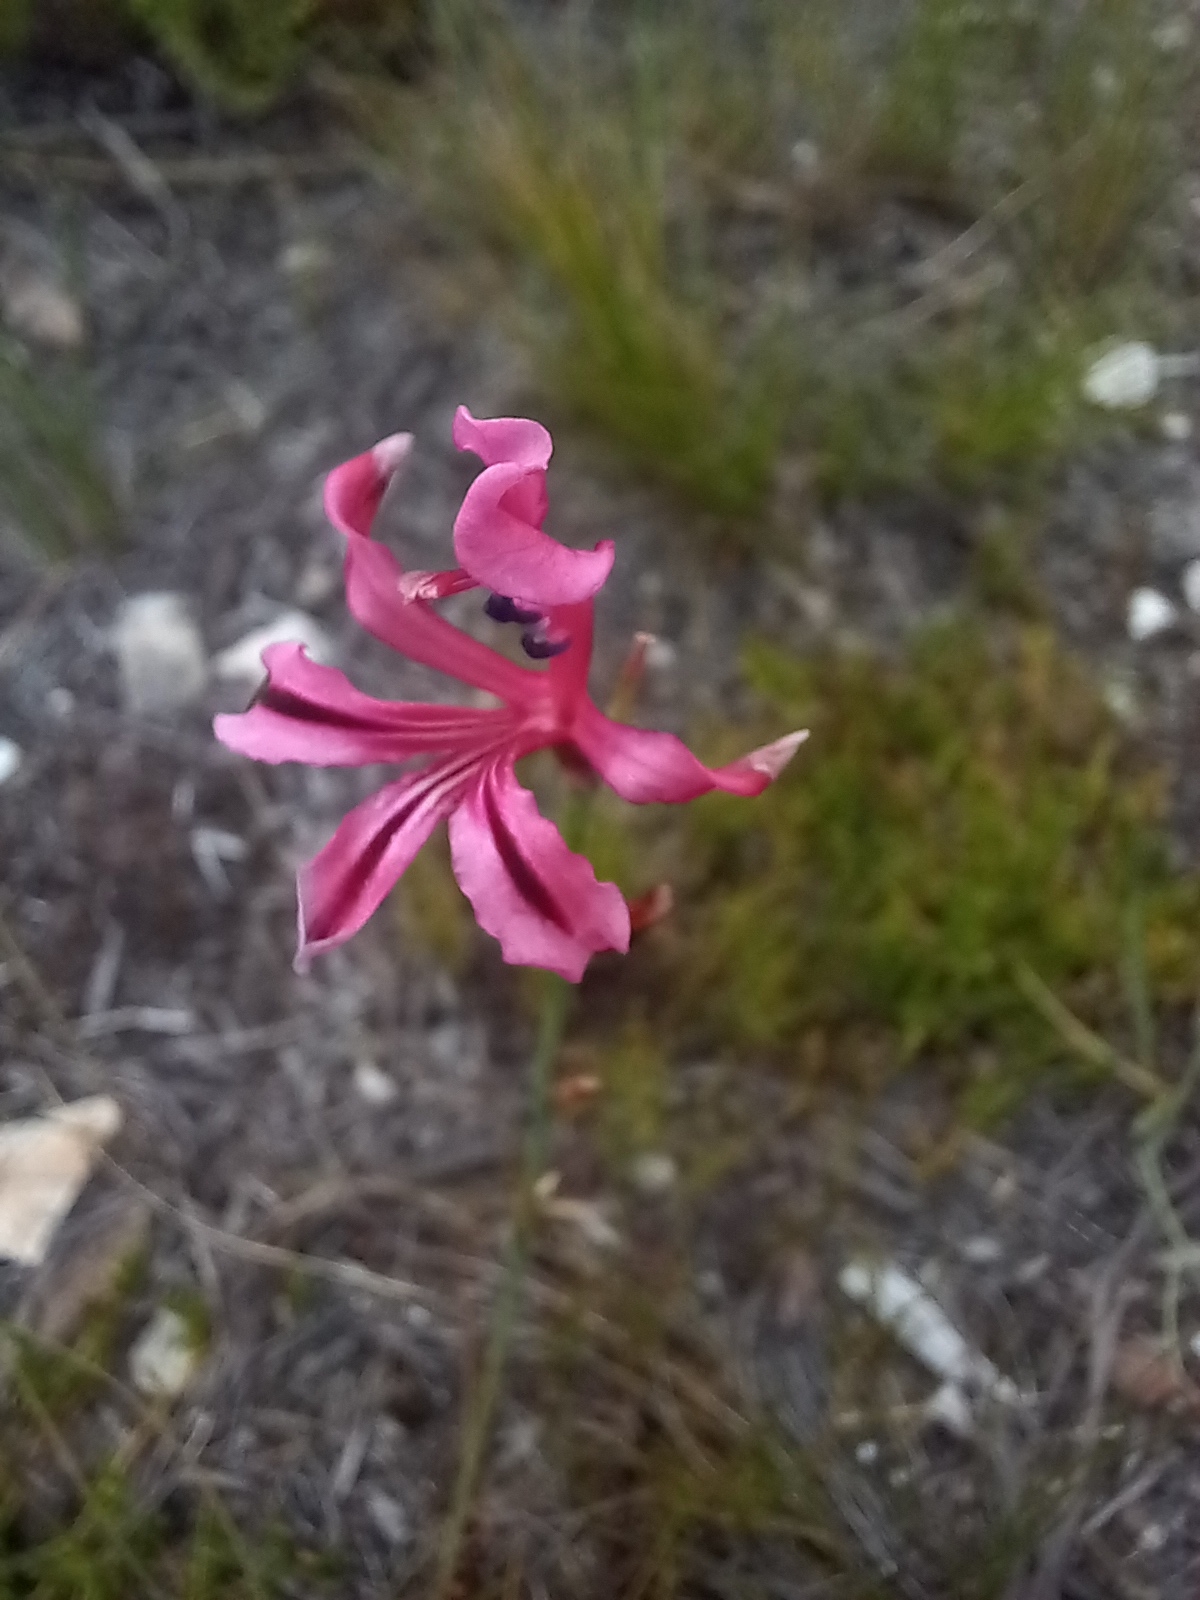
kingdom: Plantae
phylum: Tracheophyta
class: Liliopsida
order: Asparagales
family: Iridaceae
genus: Tritoniopsis
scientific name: Tritoniopsis ramosa
